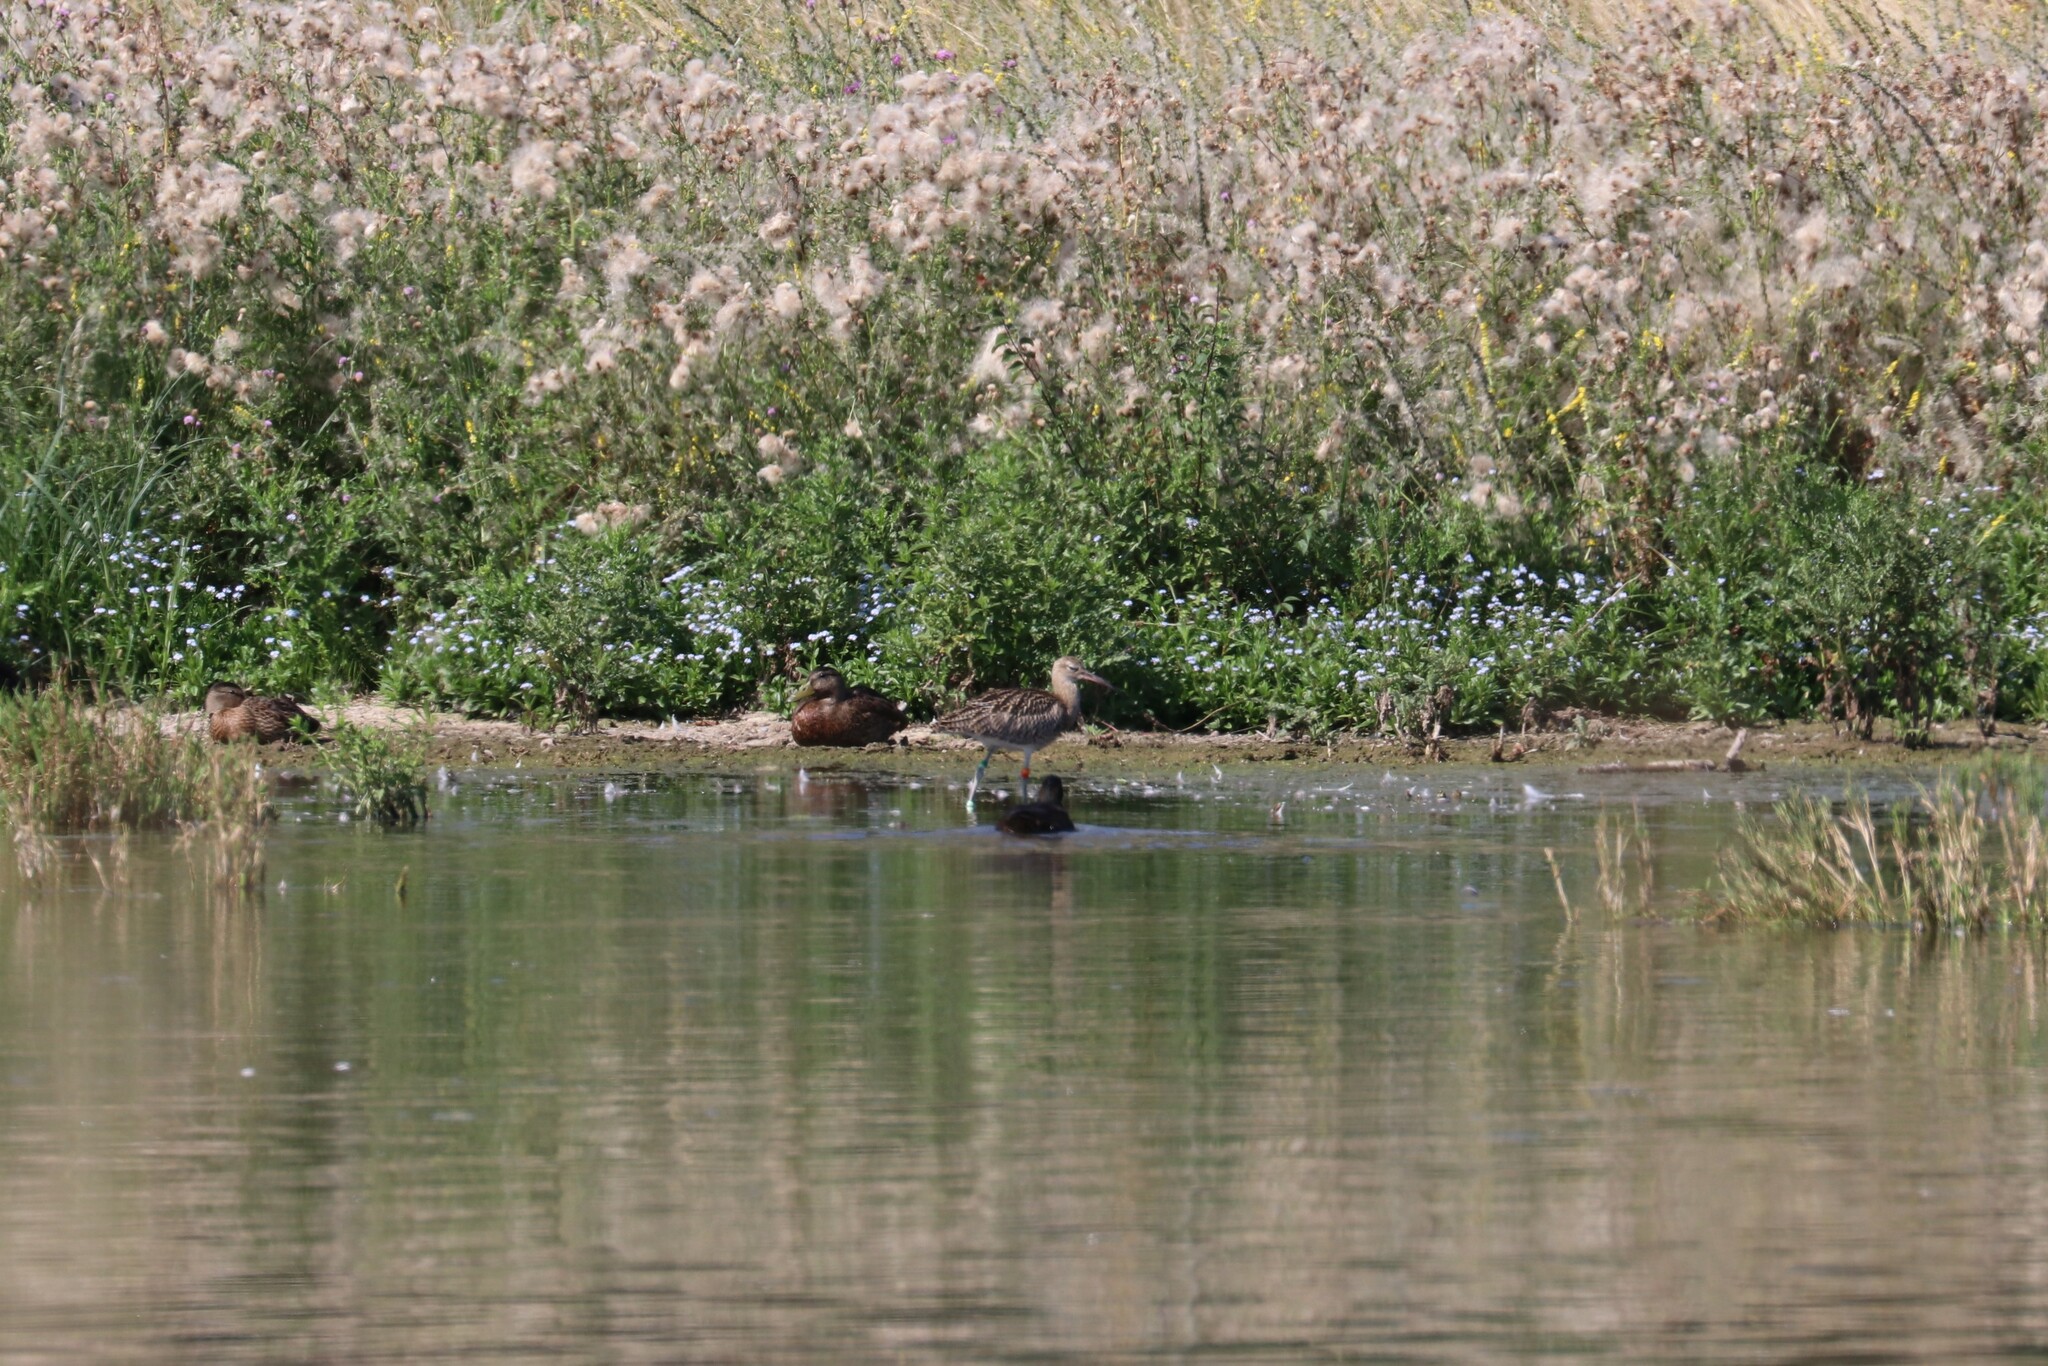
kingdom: Animalia
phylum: Chordata
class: Aves
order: Charadriiformes
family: Scolopacidae
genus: Numenius
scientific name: Numenius arquata
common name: Eurasian curlew
